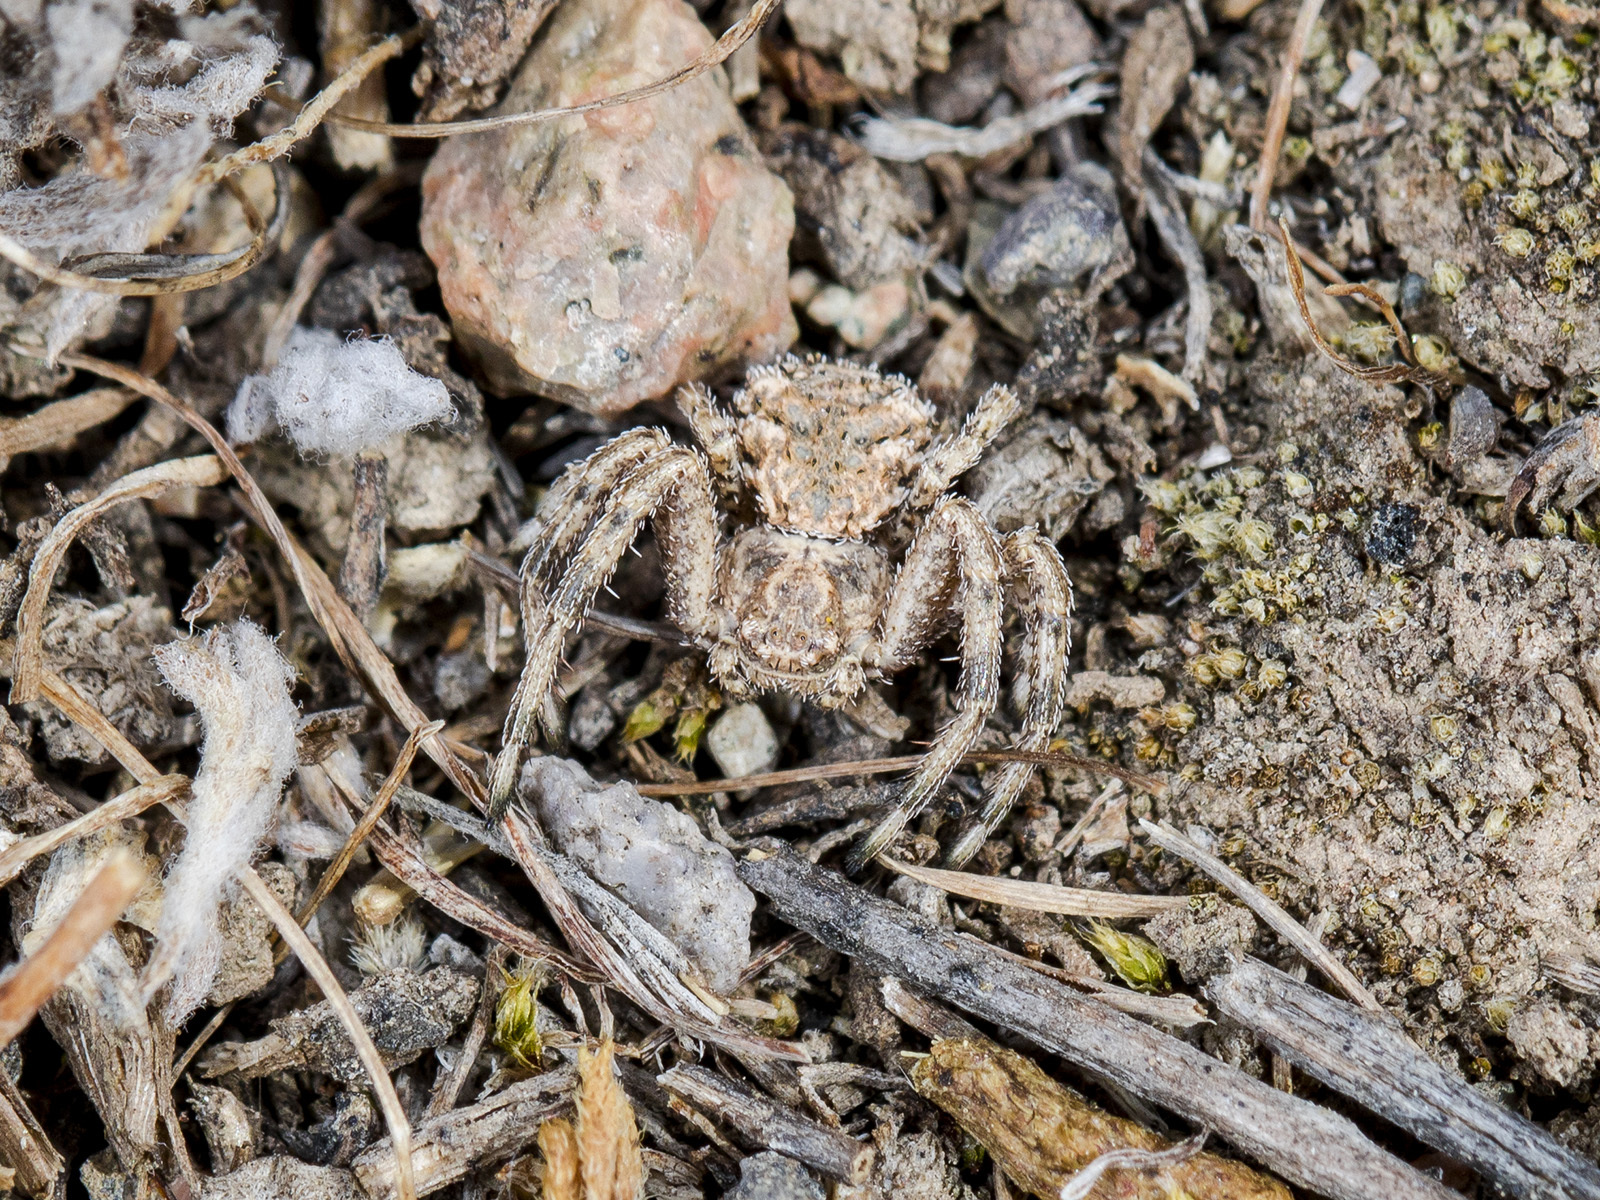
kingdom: Animalia
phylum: Arthropoda
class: Arachnida
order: Araneae
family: Thomisidae
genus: Ozyptila
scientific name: Ozyptila lugubris
